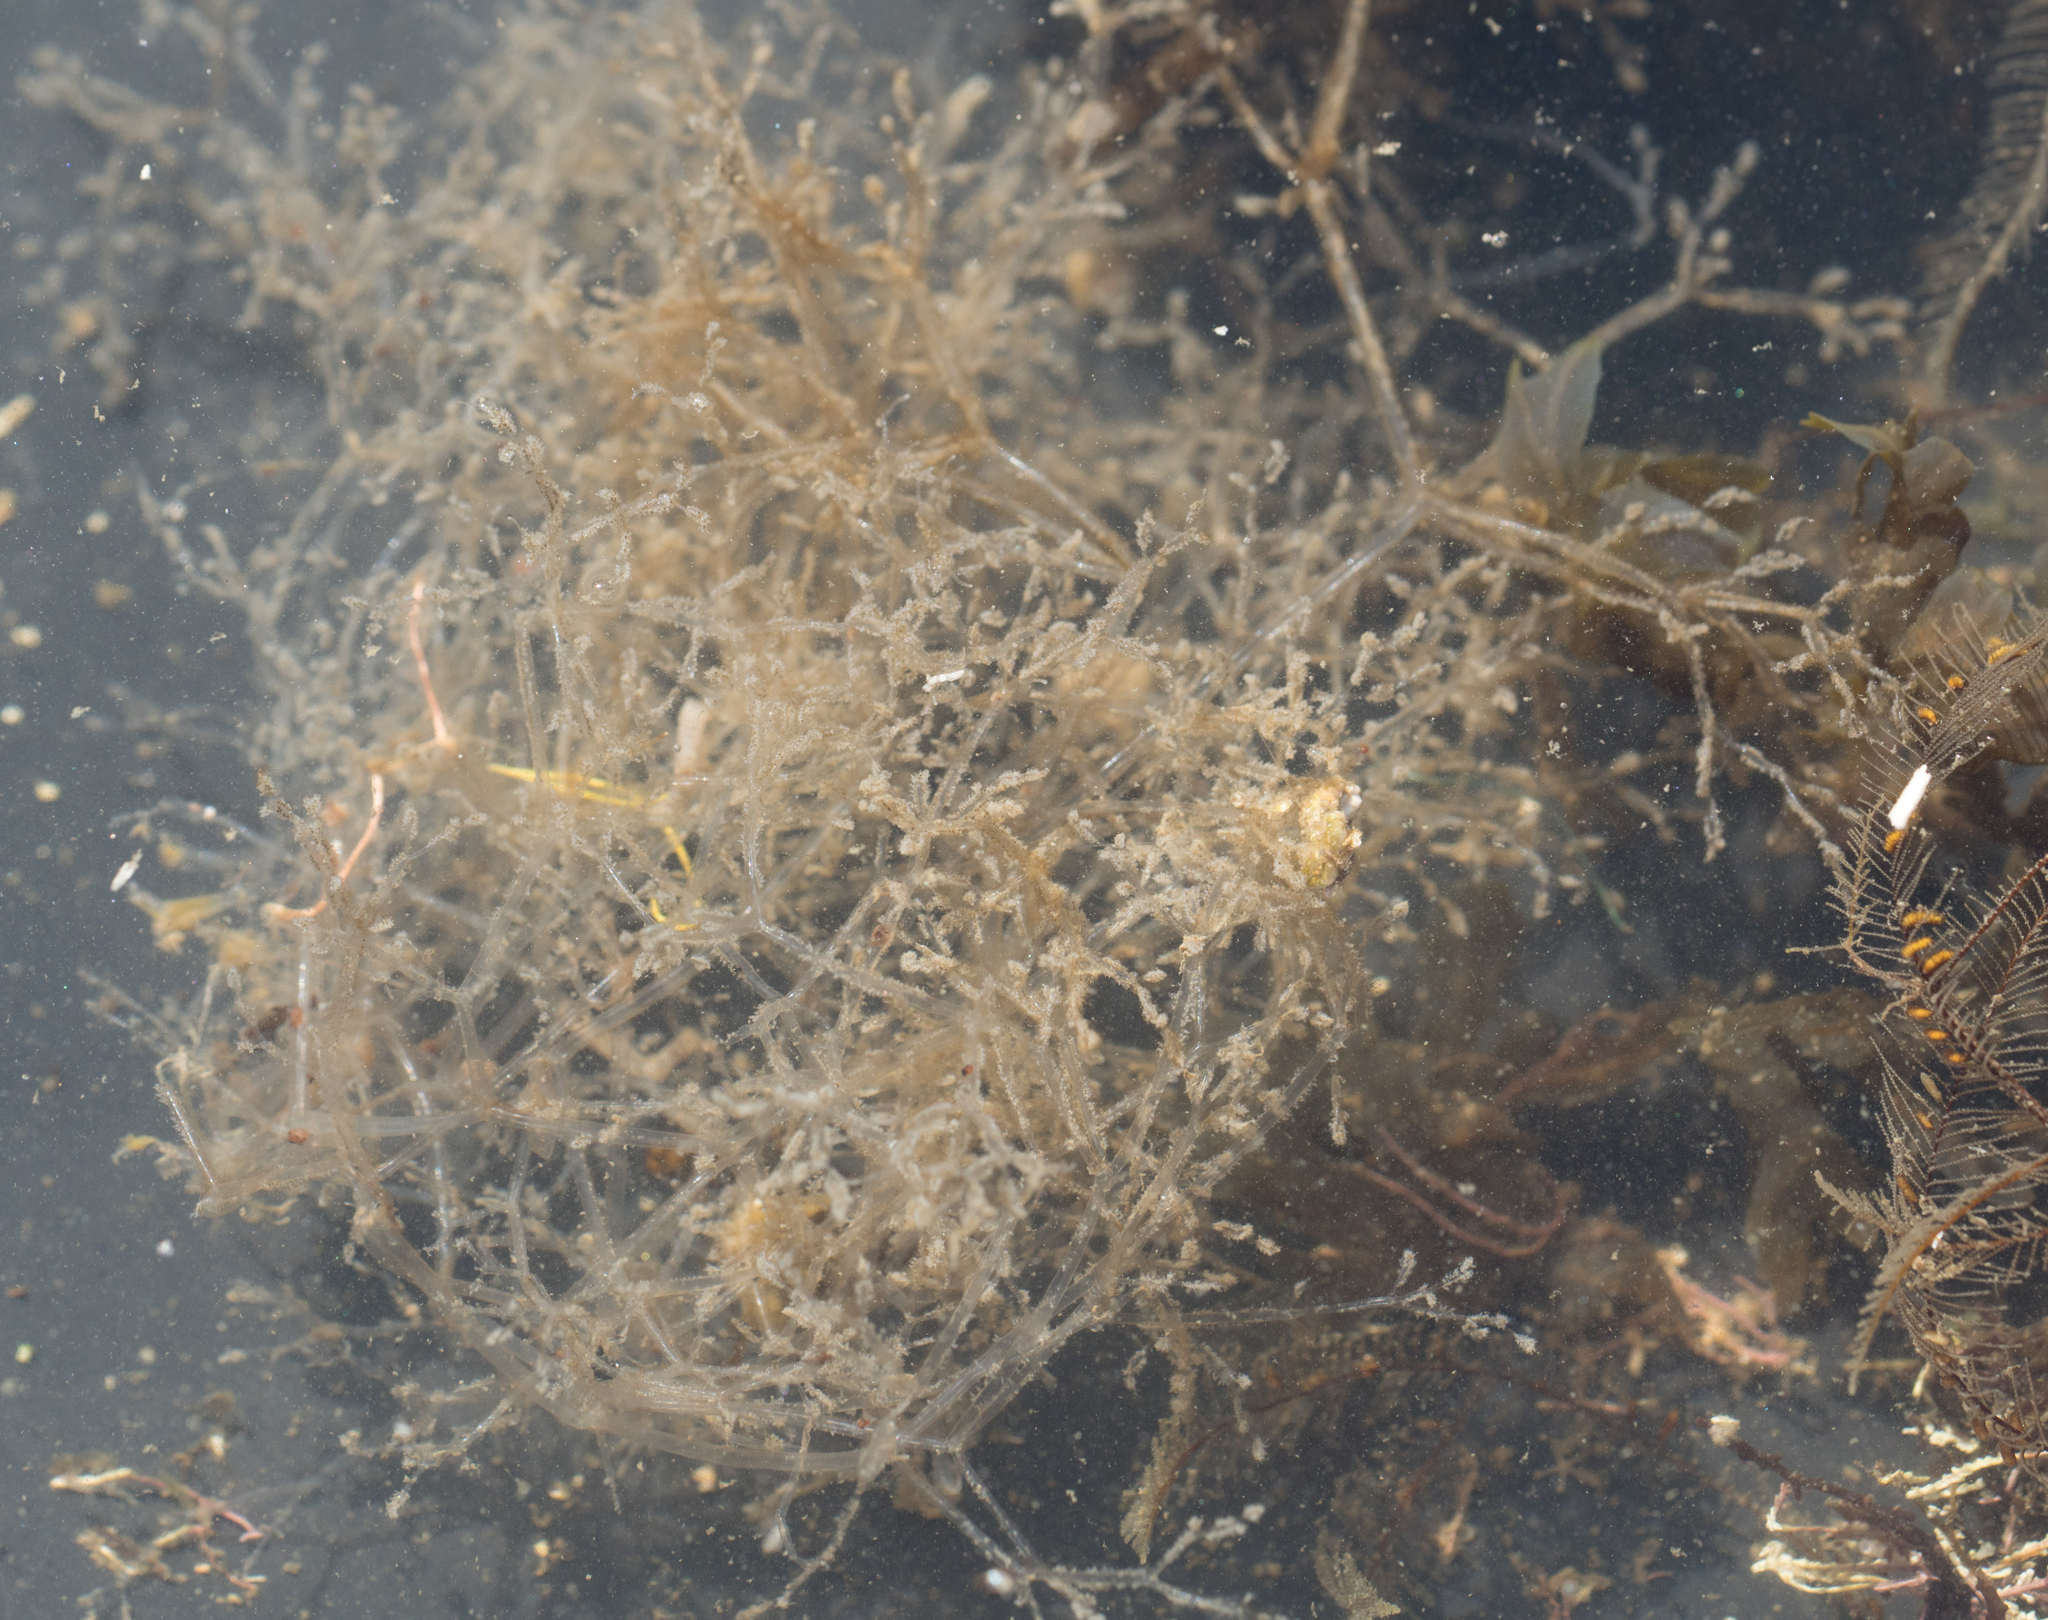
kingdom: Animalia
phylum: Bryozoa
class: Gymnolaemata
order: Ctenostomatida
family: Vesiculariidae
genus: Amathia
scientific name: Amathia verticillata
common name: Whorled zoobotryon
